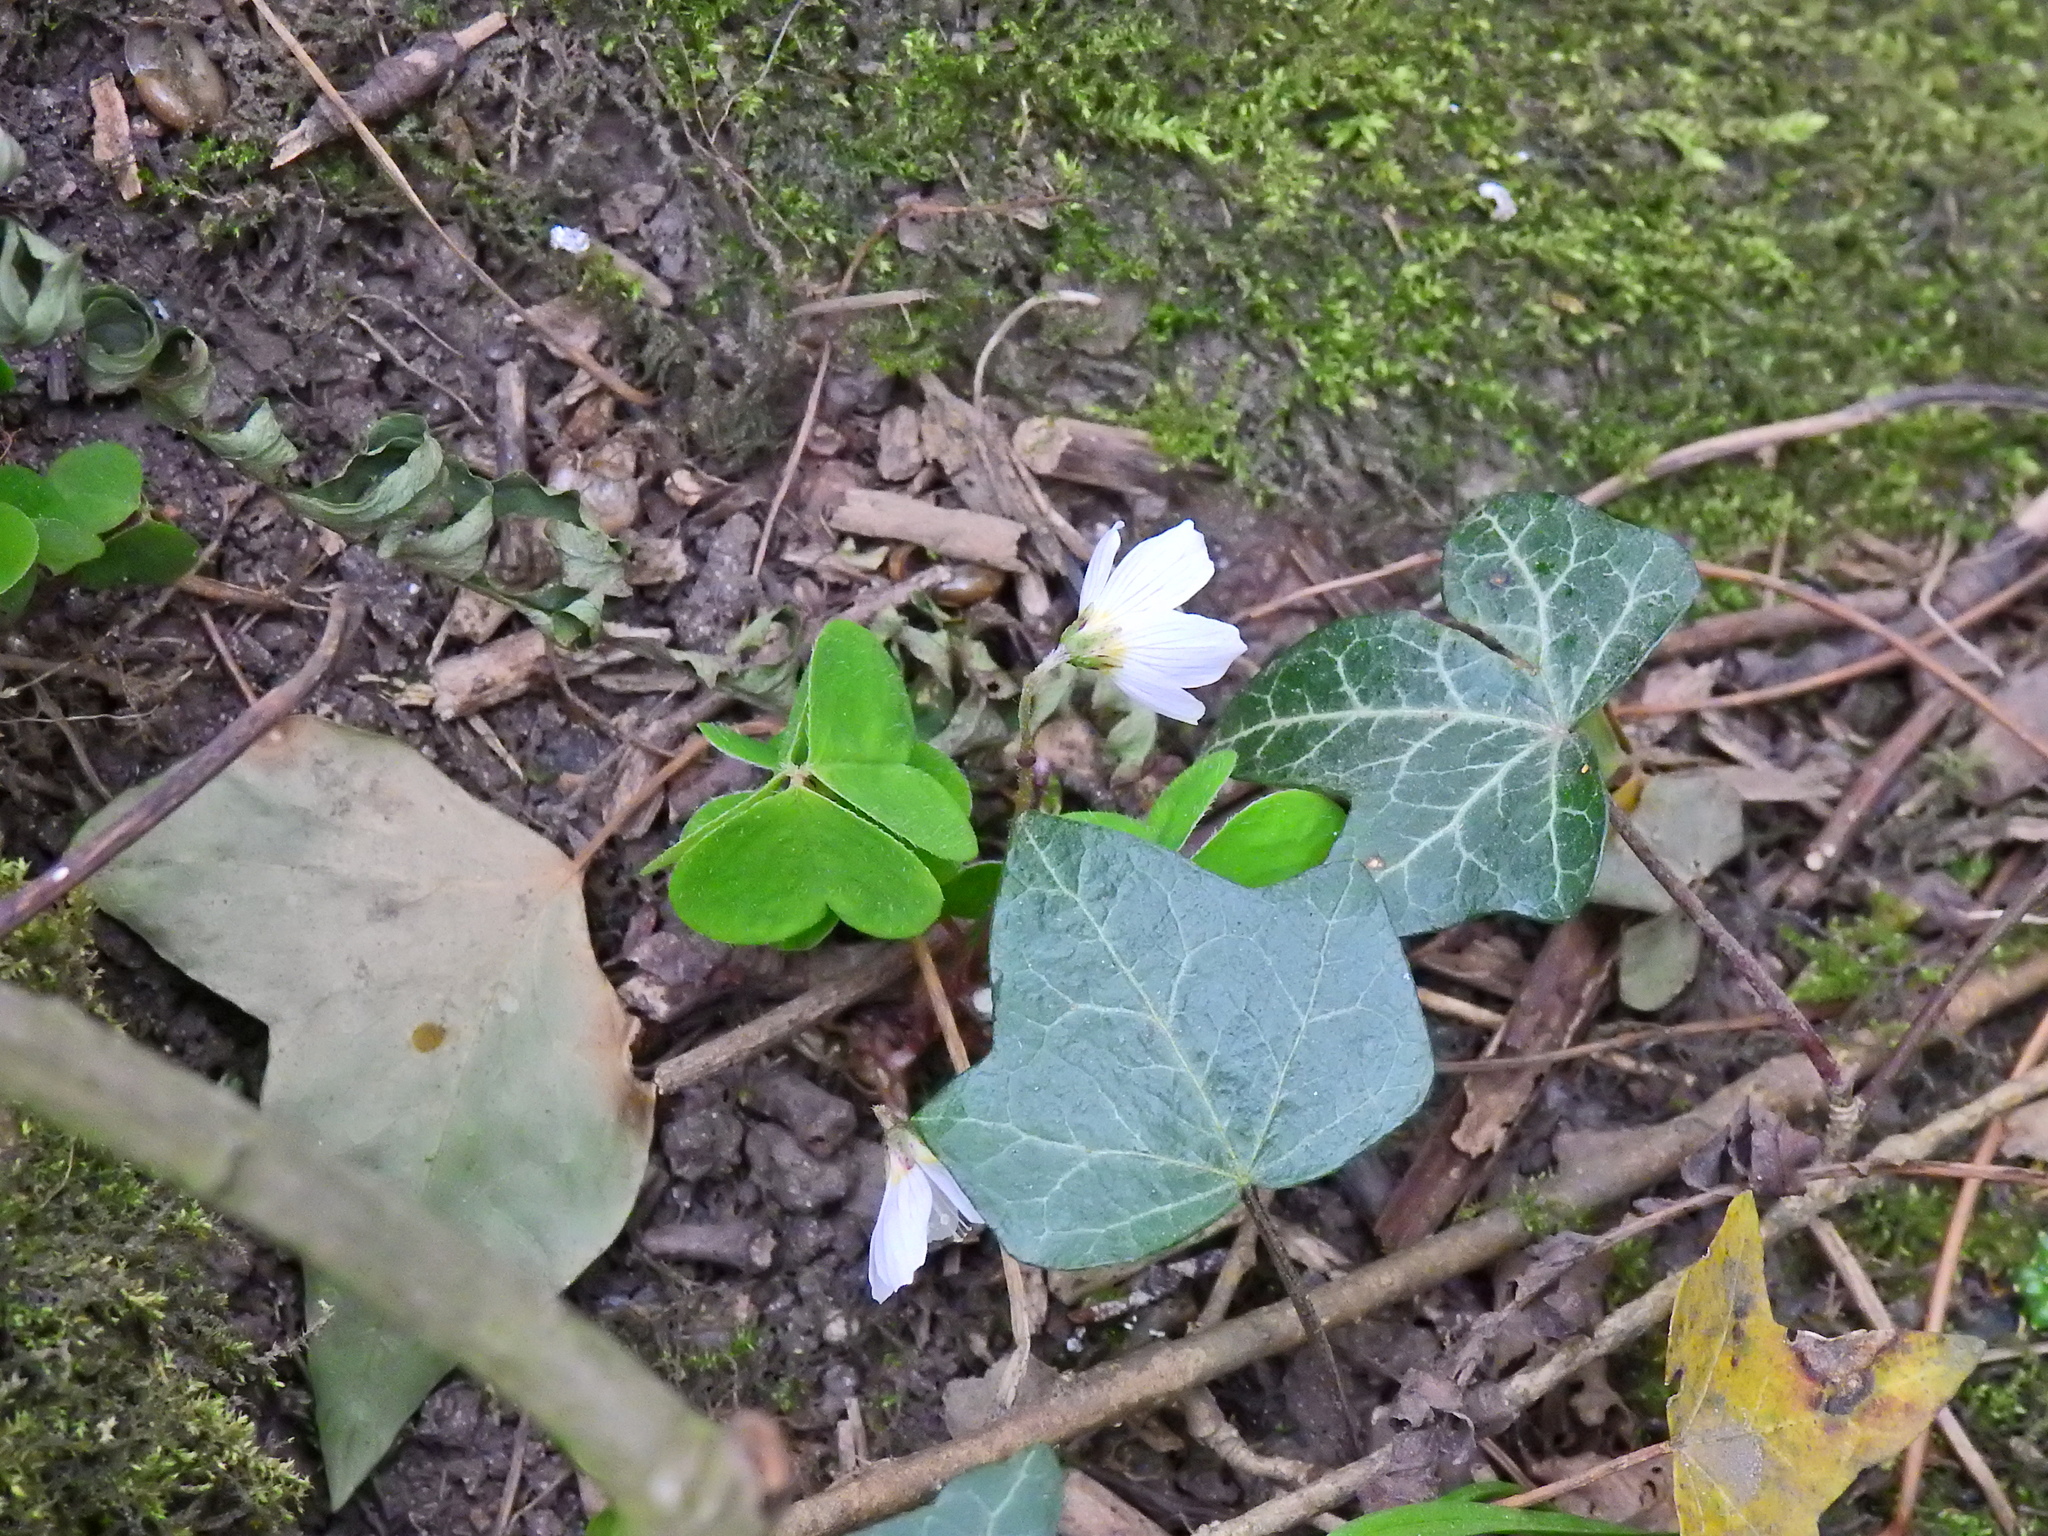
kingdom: Plantae
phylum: Tracheophyta
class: Magnoliopsida
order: Oxalidales
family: Oxalidaceae
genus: Oxalis
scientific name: Oxalis acetosella
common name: Wood-sorrel
